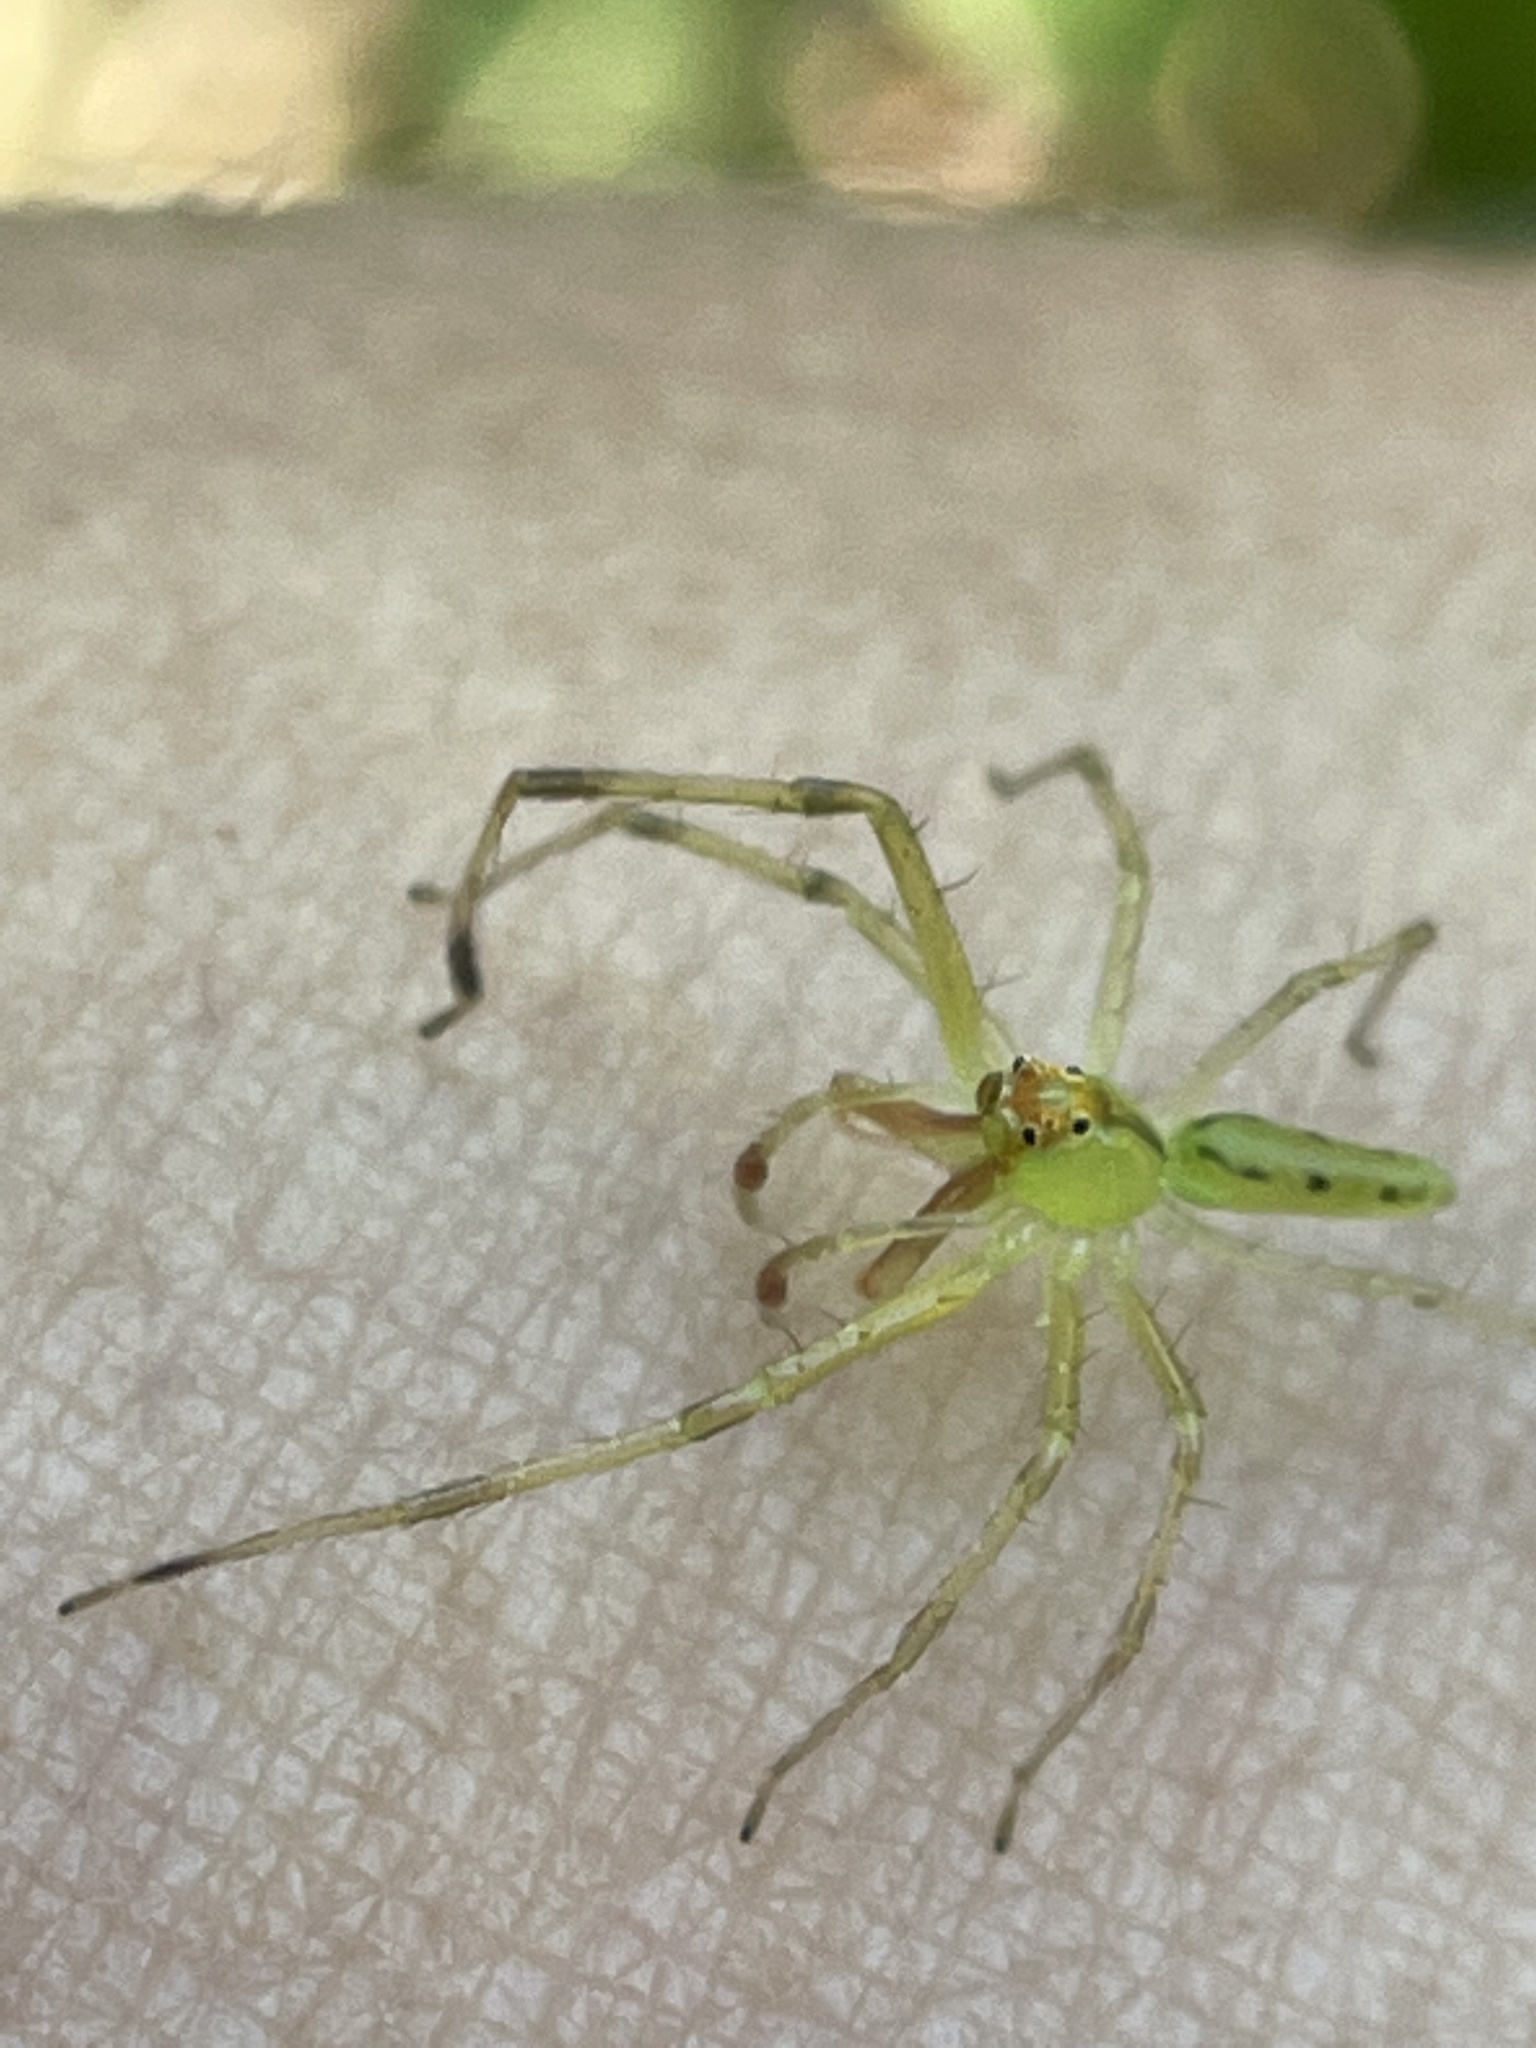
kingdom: Animalia
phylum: Arthropoda
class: Arachnida
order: Araneae
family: Salticidae
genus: Lyssomanes
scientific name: Lyssomanes viridis
